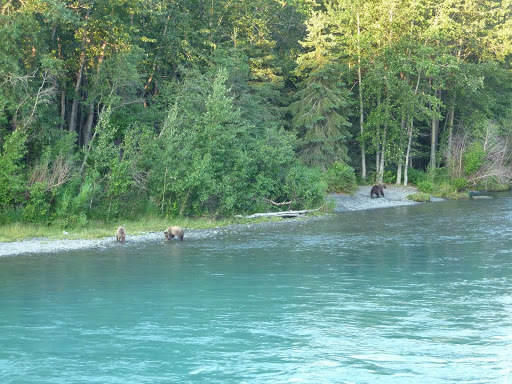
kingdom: Animalia
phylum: Chordata
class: Mammalia
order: Carnivora
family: Ursidae
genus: Ursus
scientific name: Ursus arctos
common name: Brown bear
